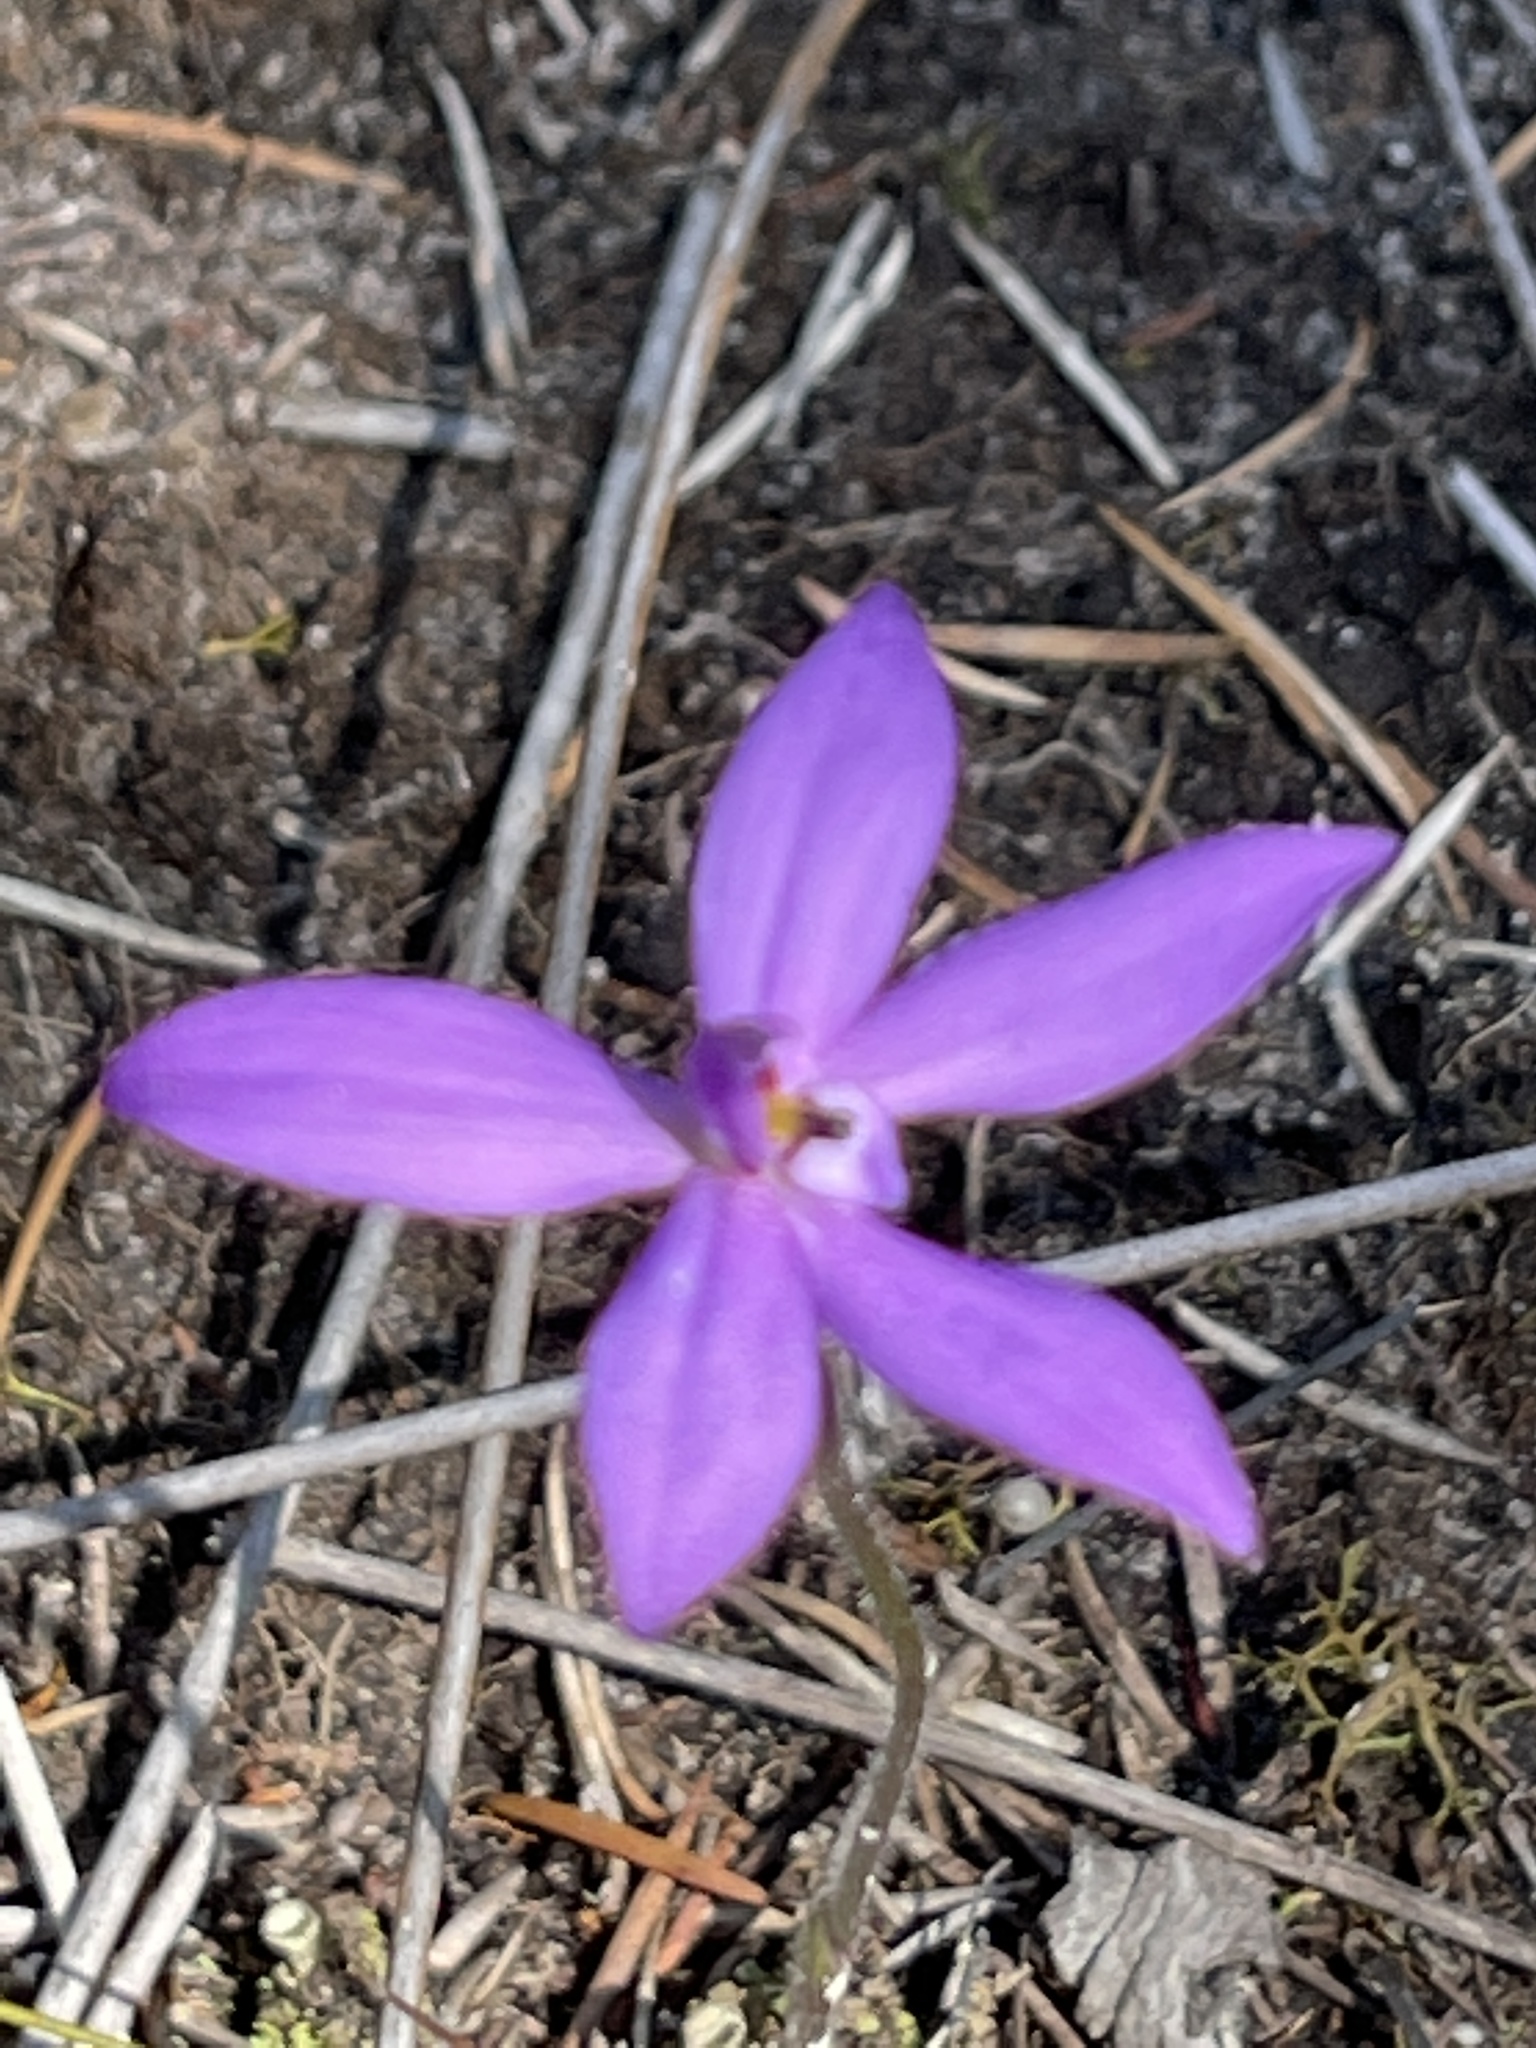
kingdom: Plantae
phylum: Tracheophyta
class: Liliopsida
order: Asparagales
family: Orchidaceae
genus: Caladenia
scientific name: Caladenia minorata
